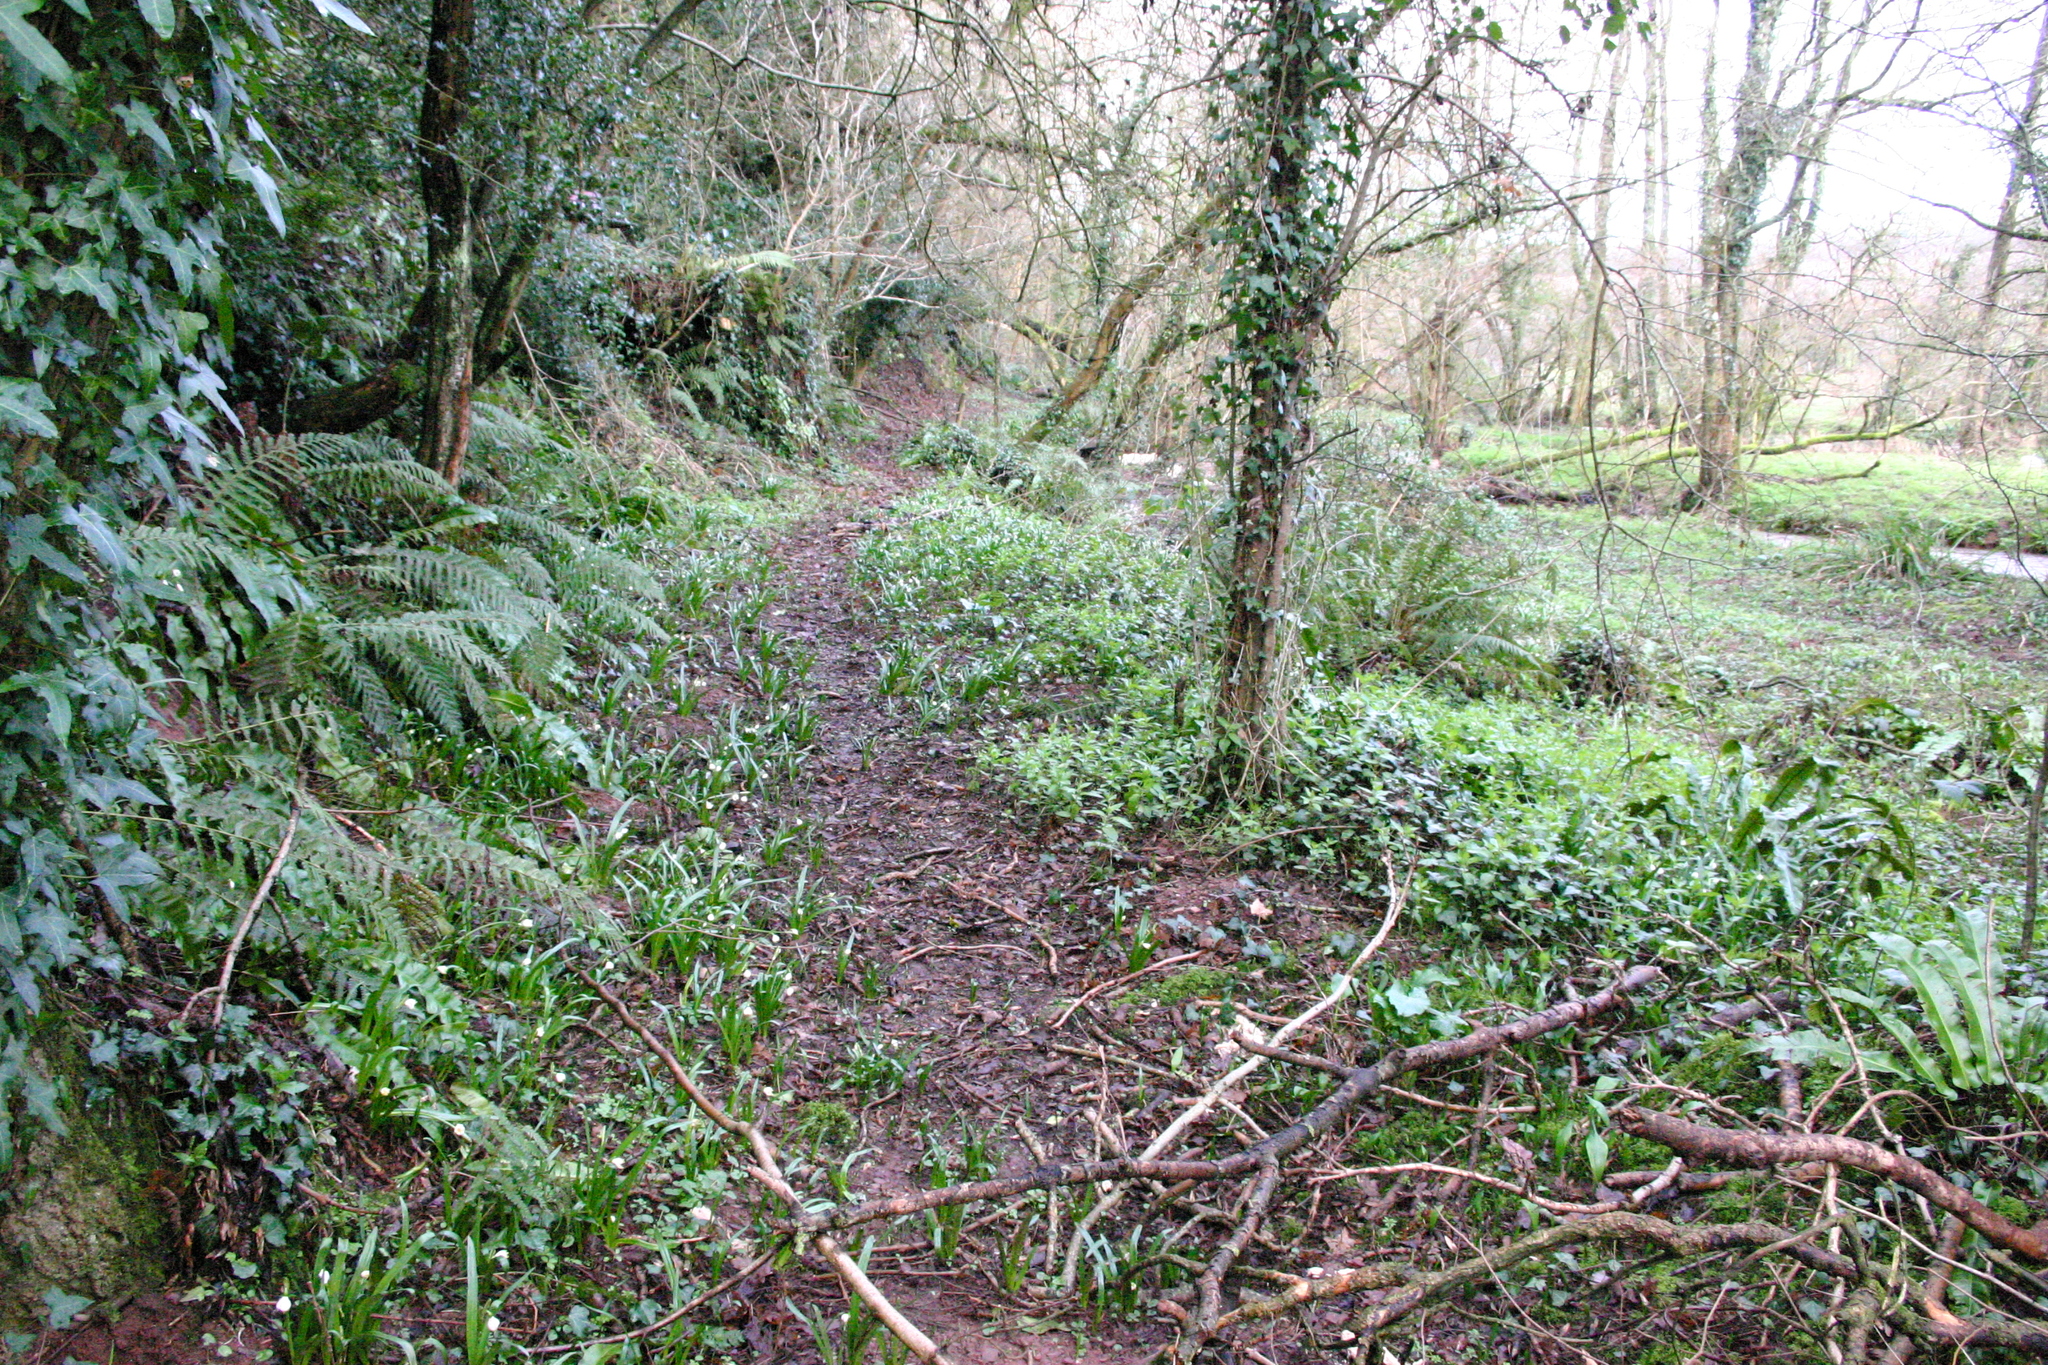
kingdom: Plantae
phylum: Tracheophyta
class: Liliopsida
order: Asparagales
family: Amaryllidaceae
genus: Leucojum
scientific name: Leucojum vernum
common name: Spring snowflake
